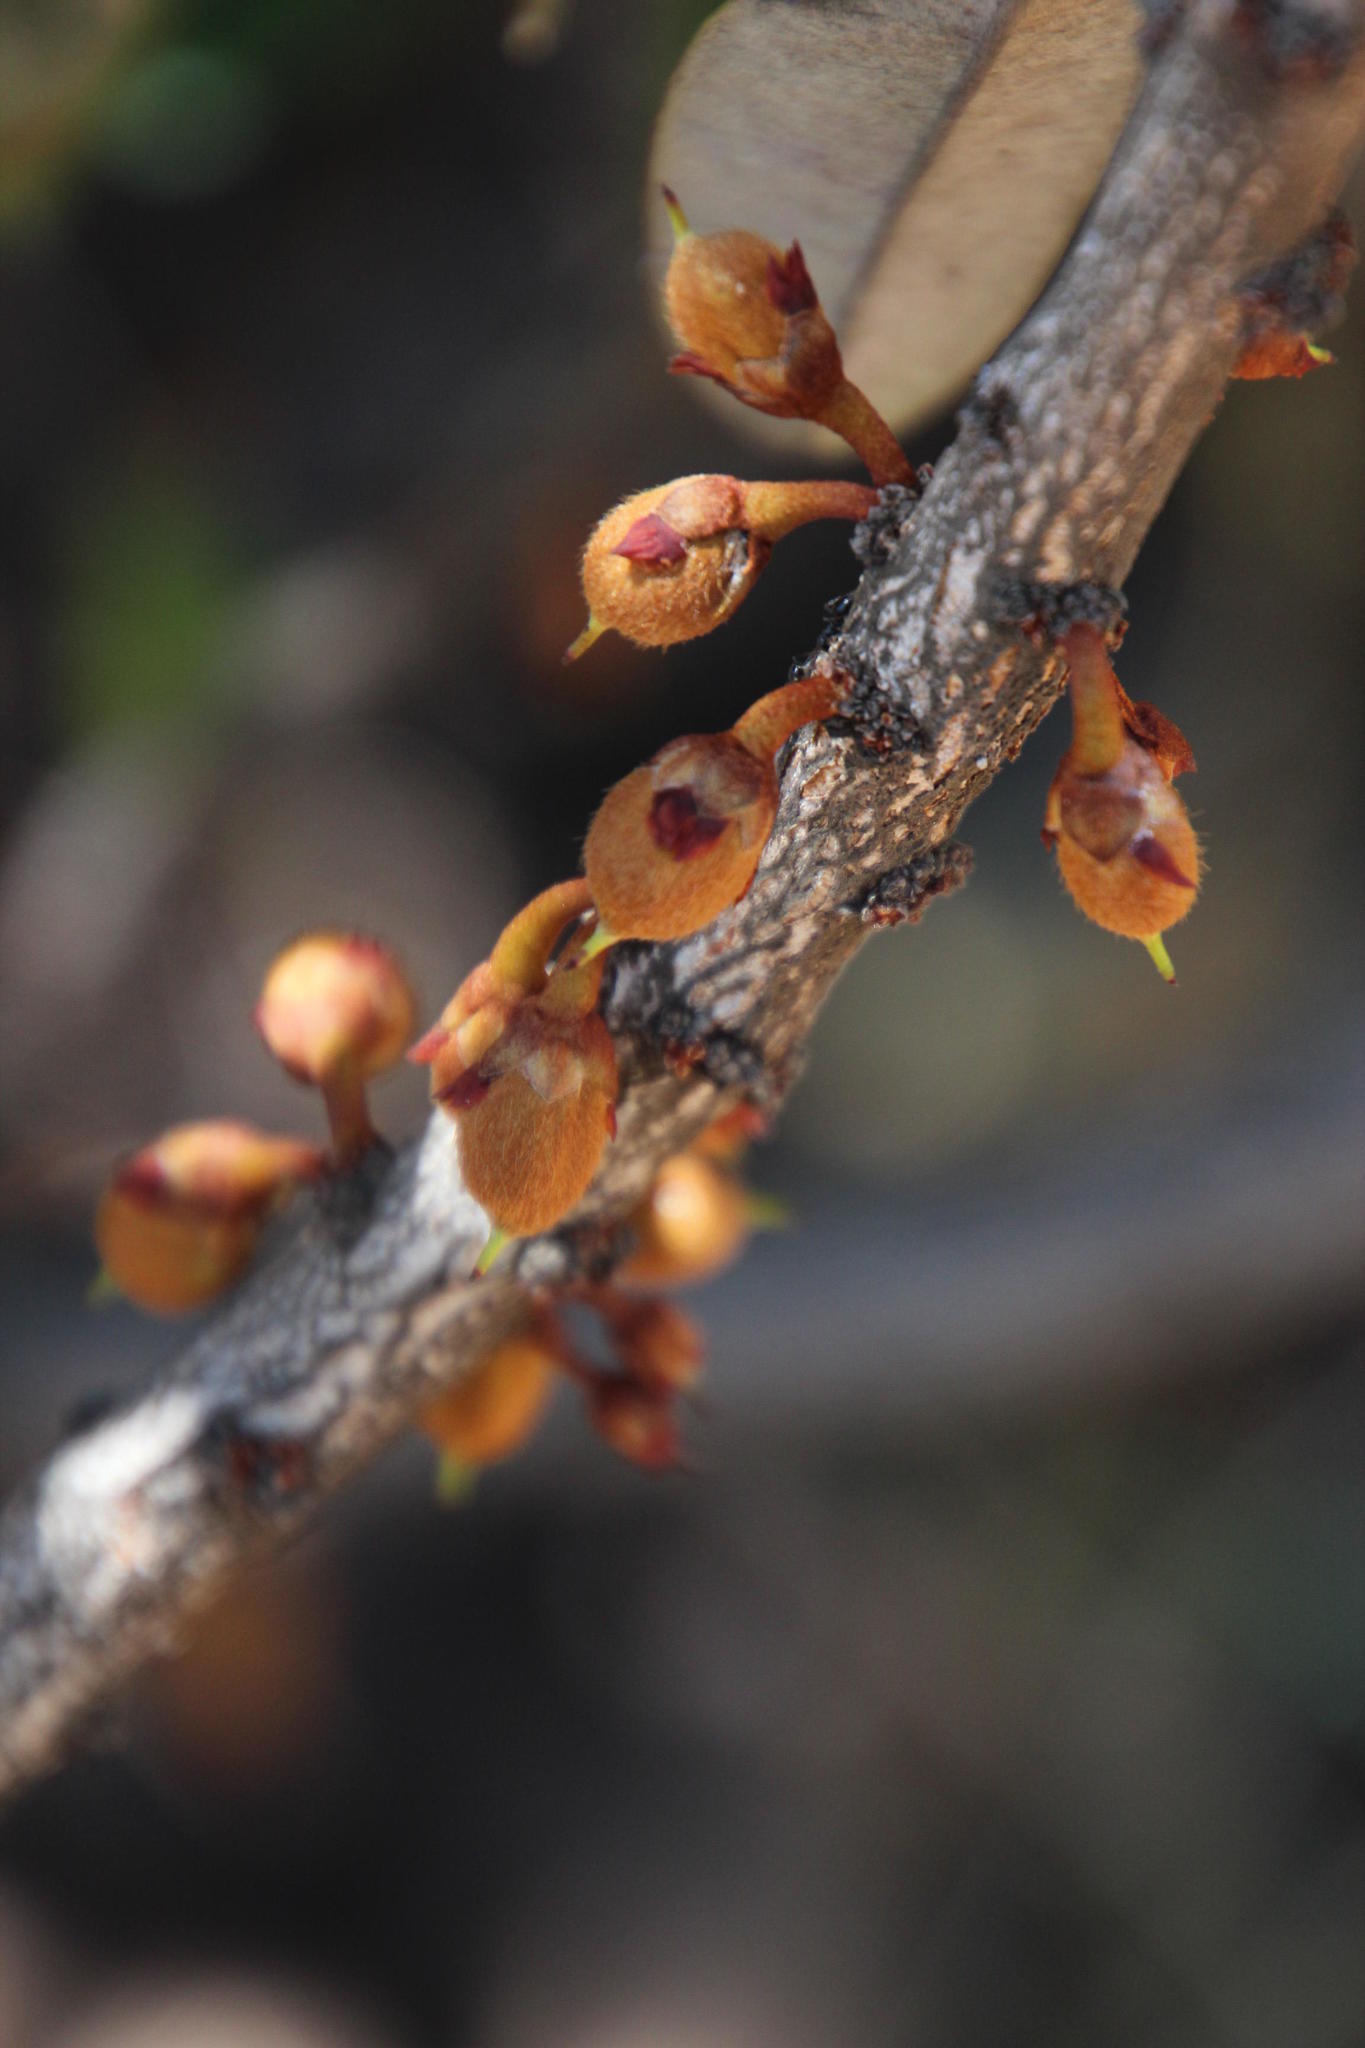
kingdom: Plantae
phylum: Tracheophyta
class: Magnoliopsida
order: Ericales
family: Sapotaceae
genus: Englerophytum
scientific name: Englerophytum magalismontanum
